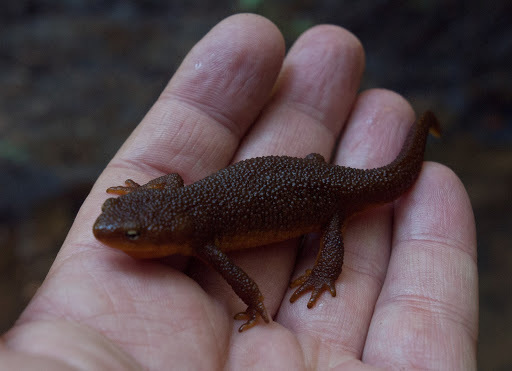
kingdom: Animalia
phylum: Chordata
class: Amphibia
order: Caudata
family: Salamandridae
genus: Taricha
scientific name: Taricha granulosa
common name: Roughskin newt
